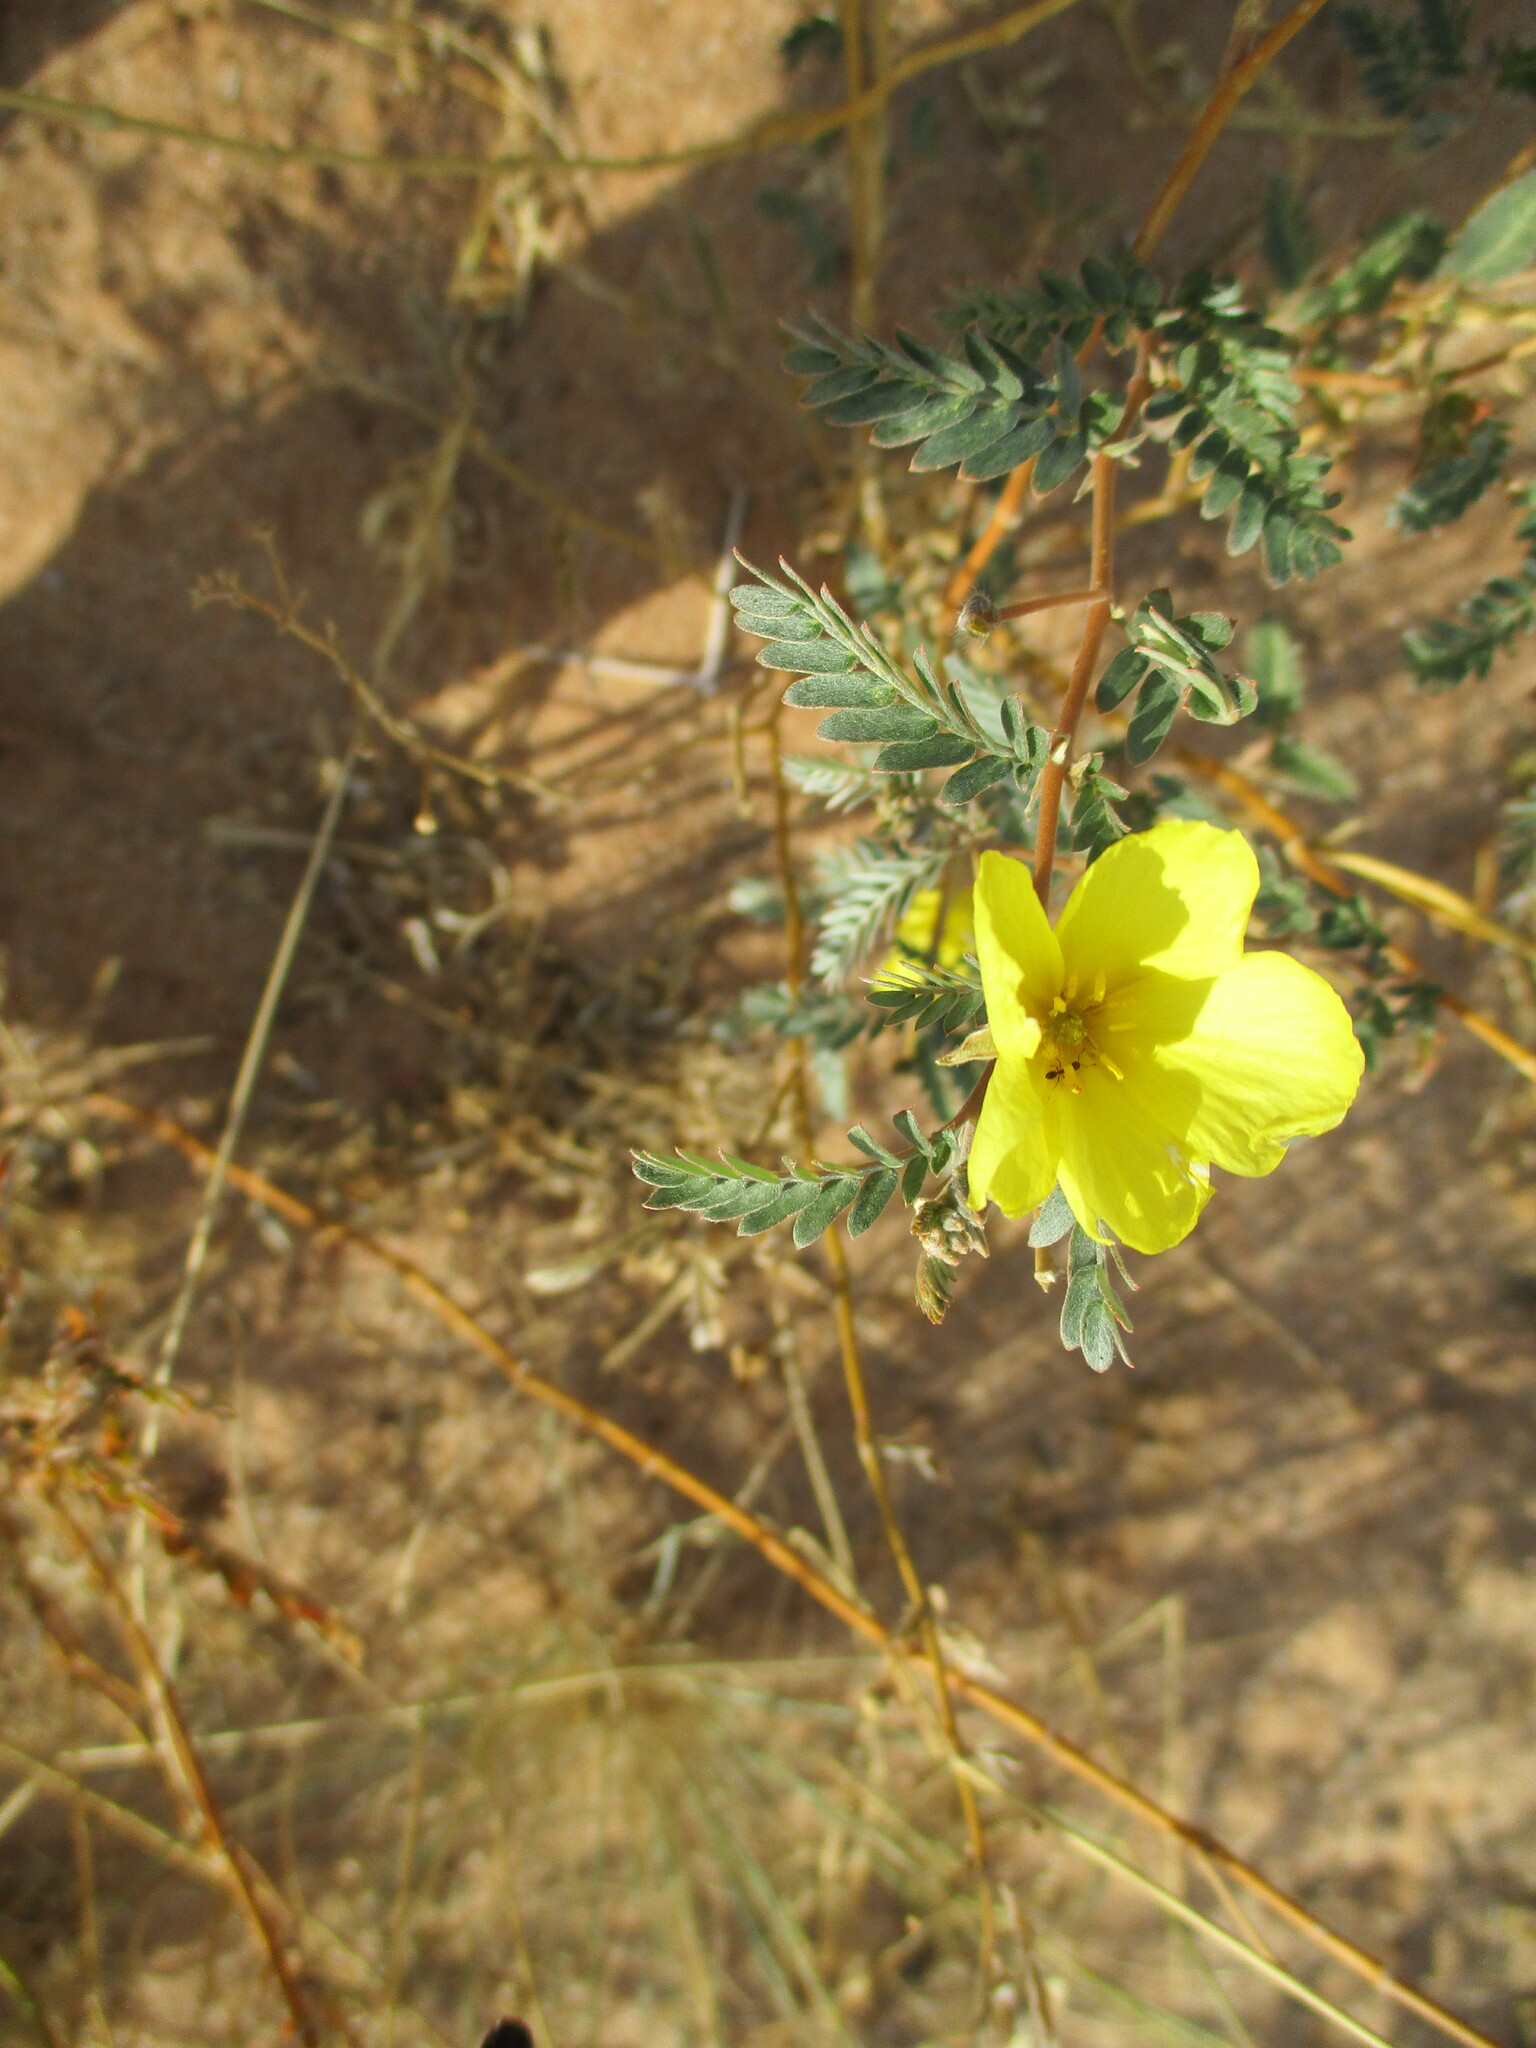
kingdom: Plantae
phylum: Tracheophyta
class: Magnoliopsida
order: Zygophyllales
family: Zygophyllaceae
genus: Tribulus
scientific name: Tribulus zeyheri
